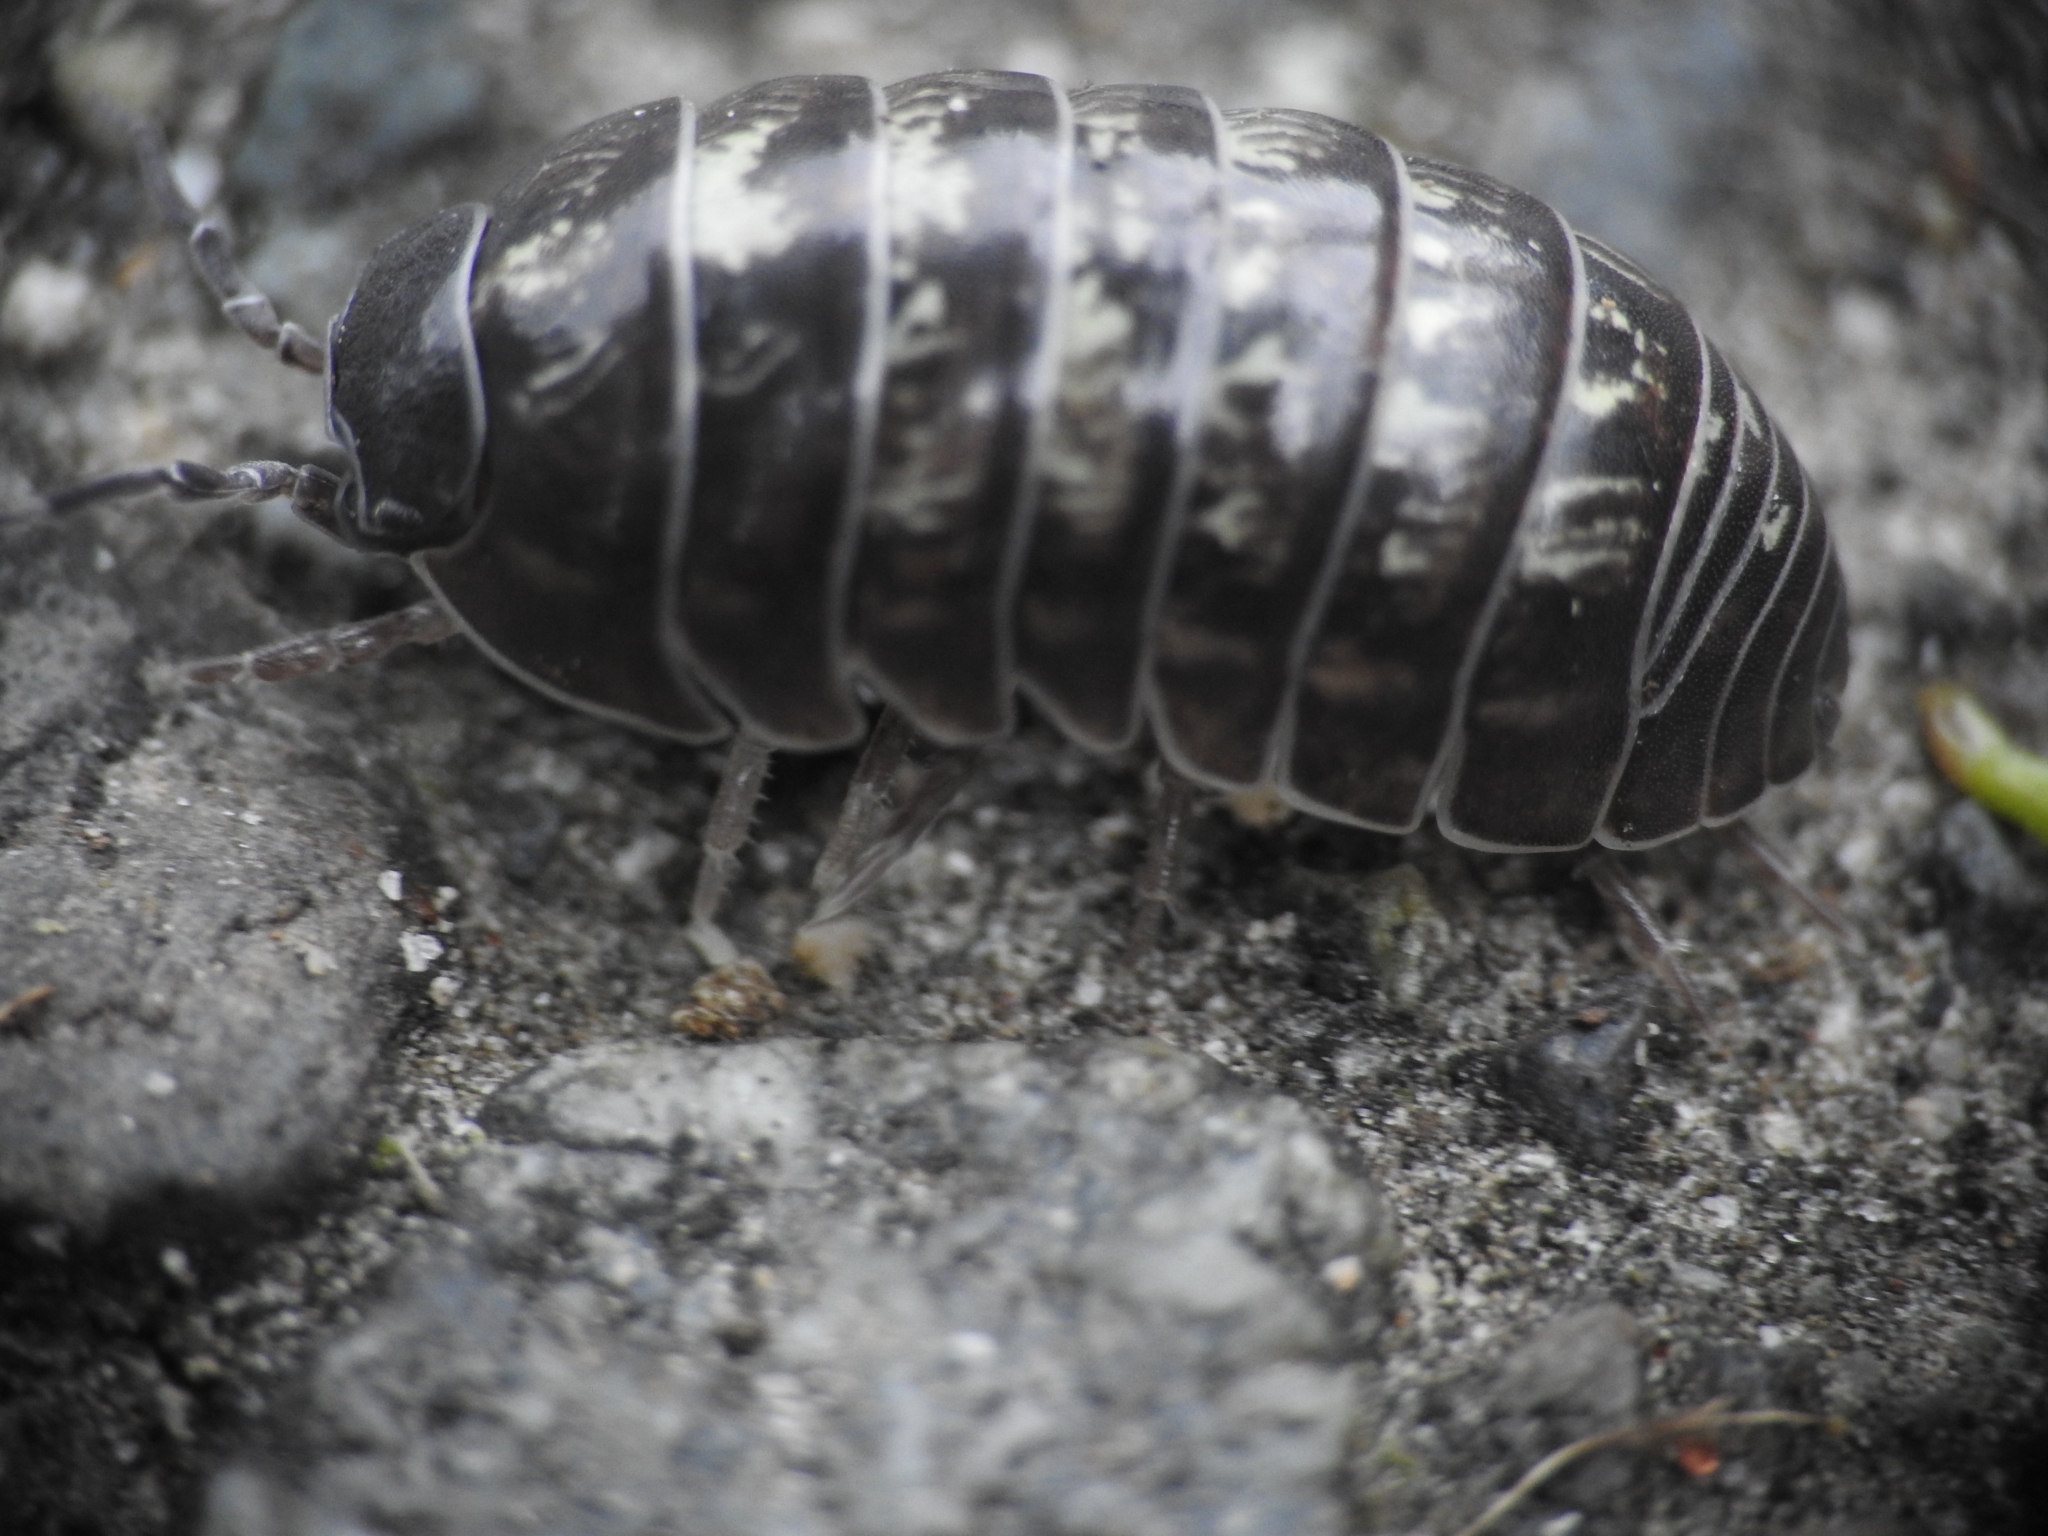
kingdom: Animalia
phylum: Arthropoda
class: Malacostraca
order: Isopoda
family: Armadillidiidae
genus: Armadillidium
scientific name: Armadillidium vulgare
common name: Common pill woodlouse
